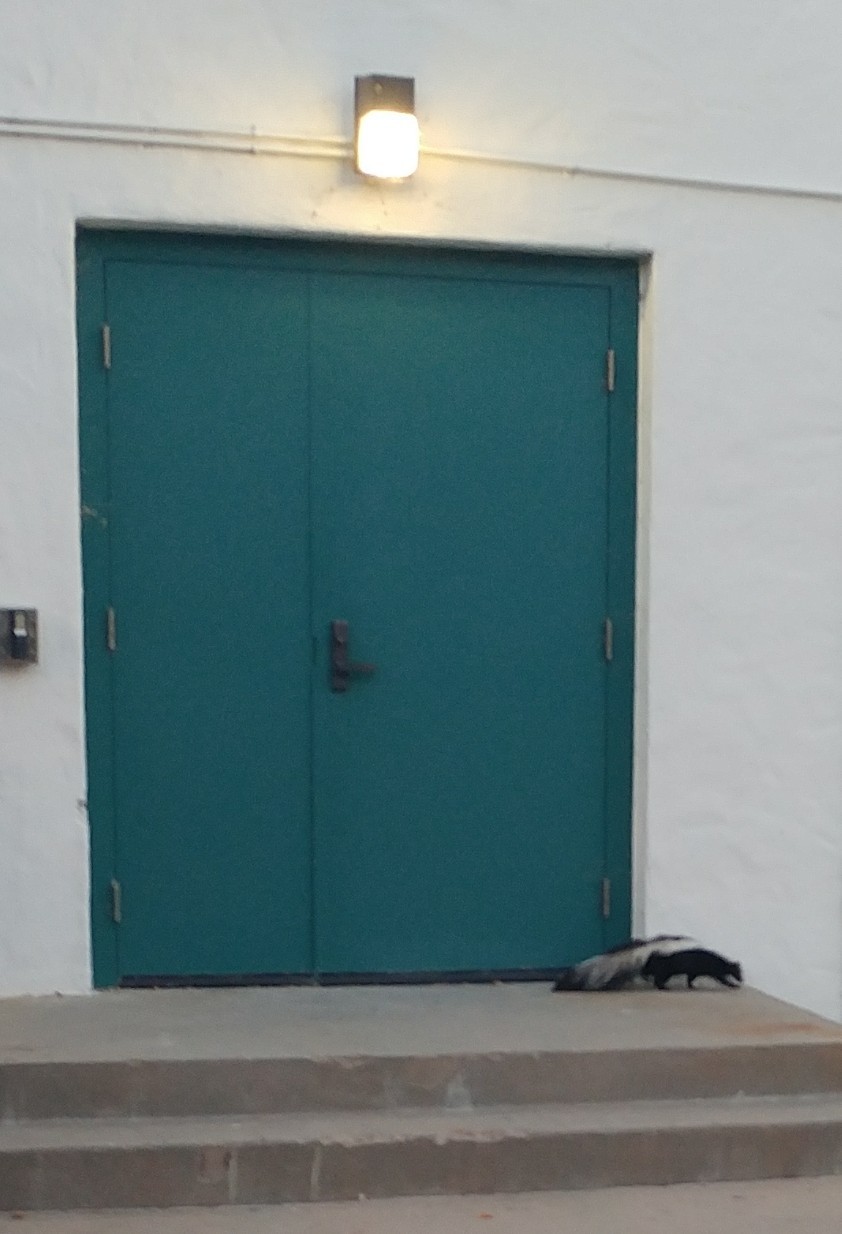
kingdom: Animalia
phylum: Chordata
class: Mammalia
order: Carnivora
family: Mephitidae
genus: Mephitis
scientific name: Mephitis mephitis
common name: Striped skunk
